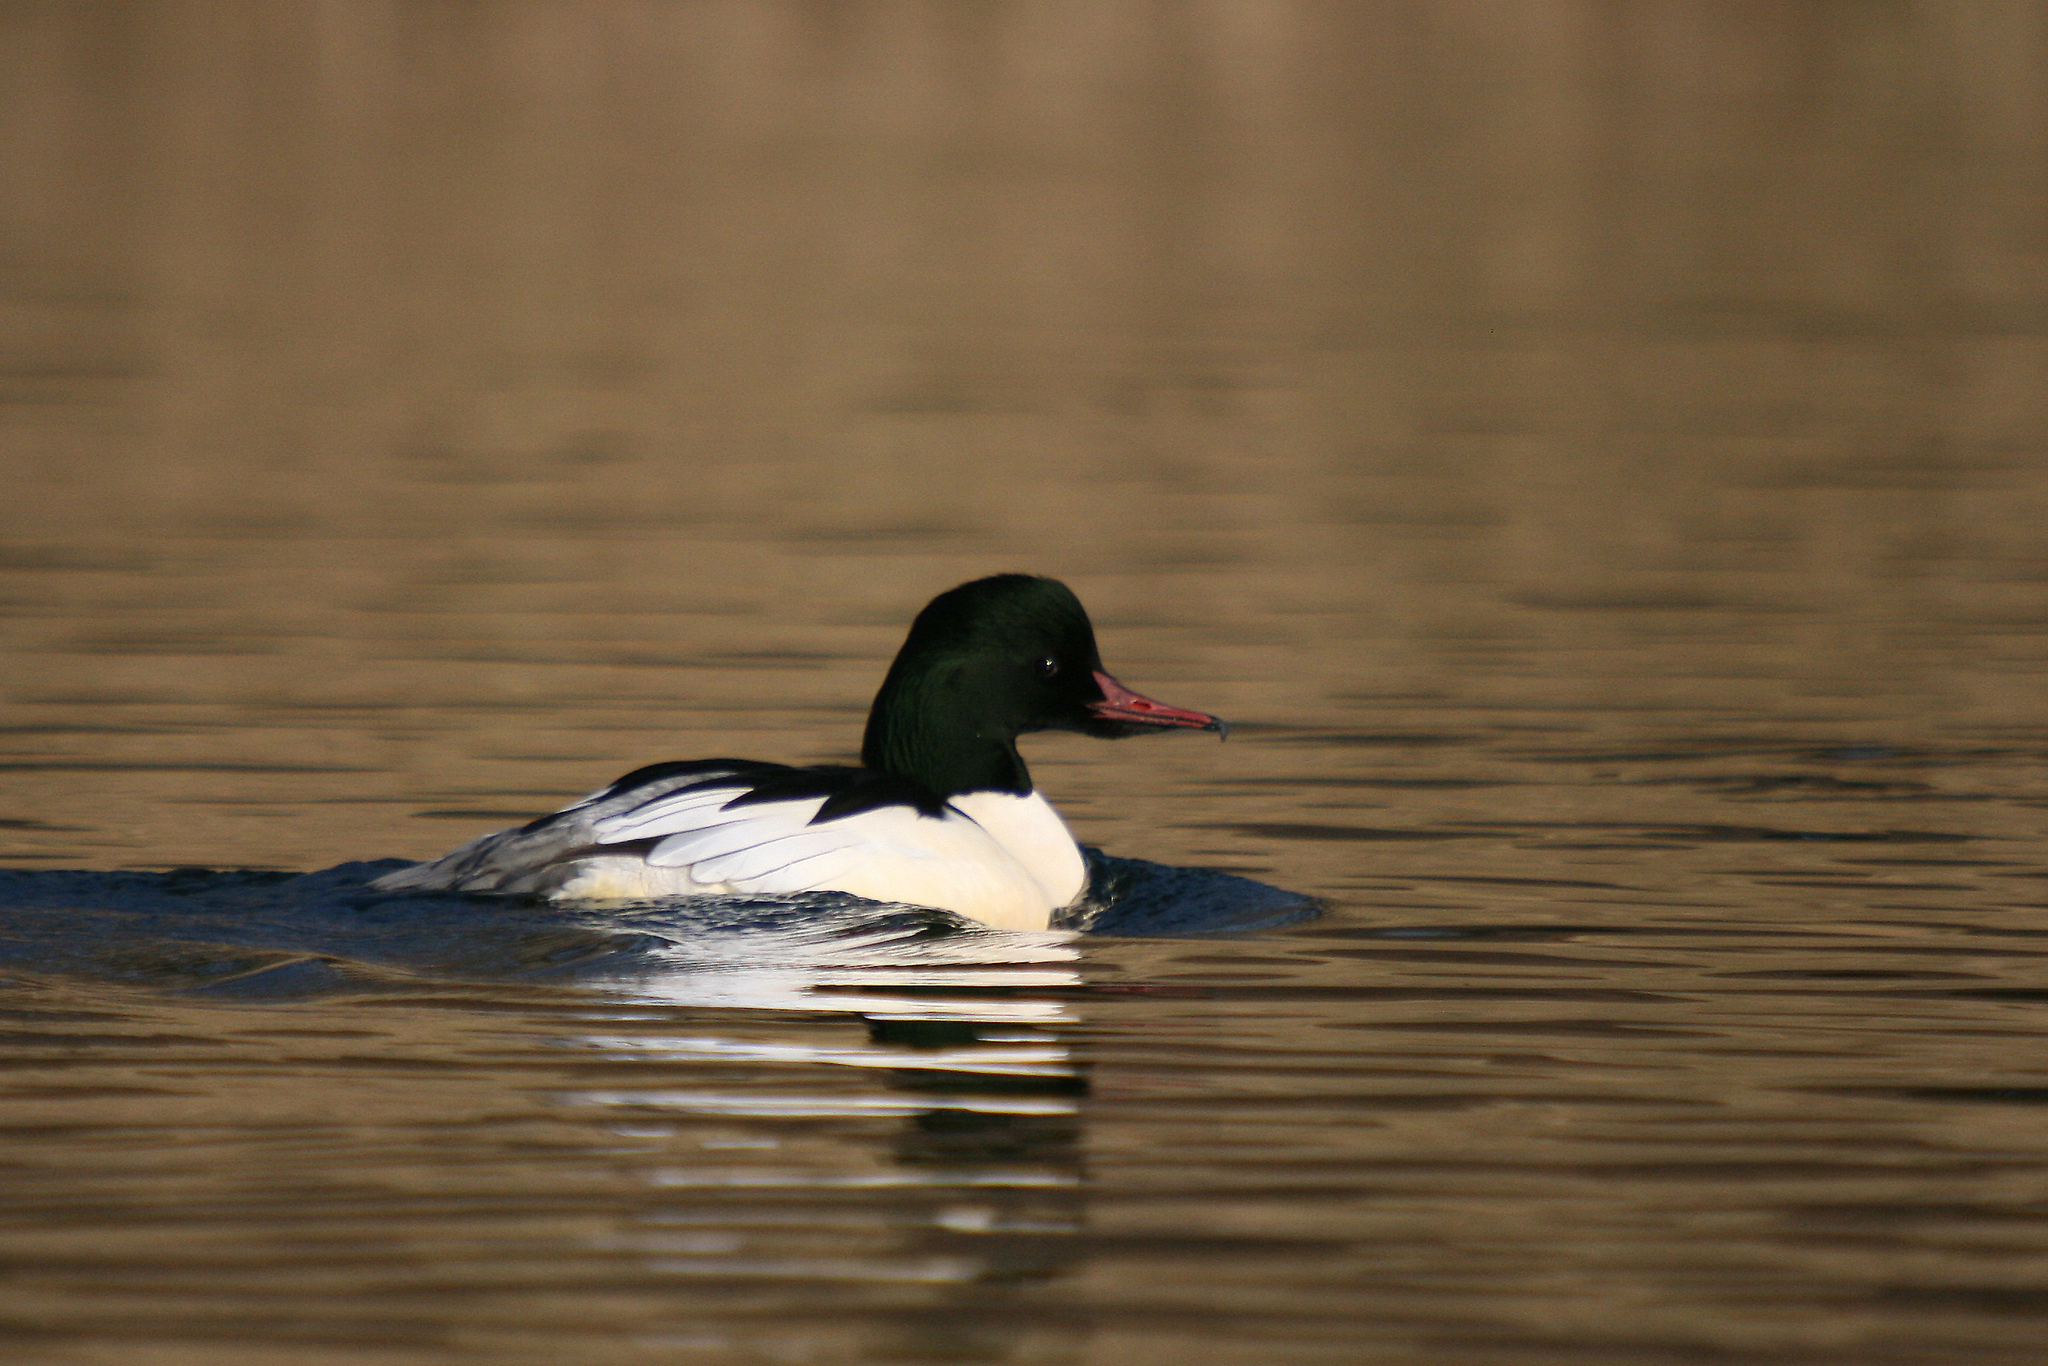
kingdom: Animalia
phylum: Chordata
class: Aves
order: Anseriformes
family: Anatidae
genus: Mergus
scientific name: Mergus merganser
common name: Common merganser
